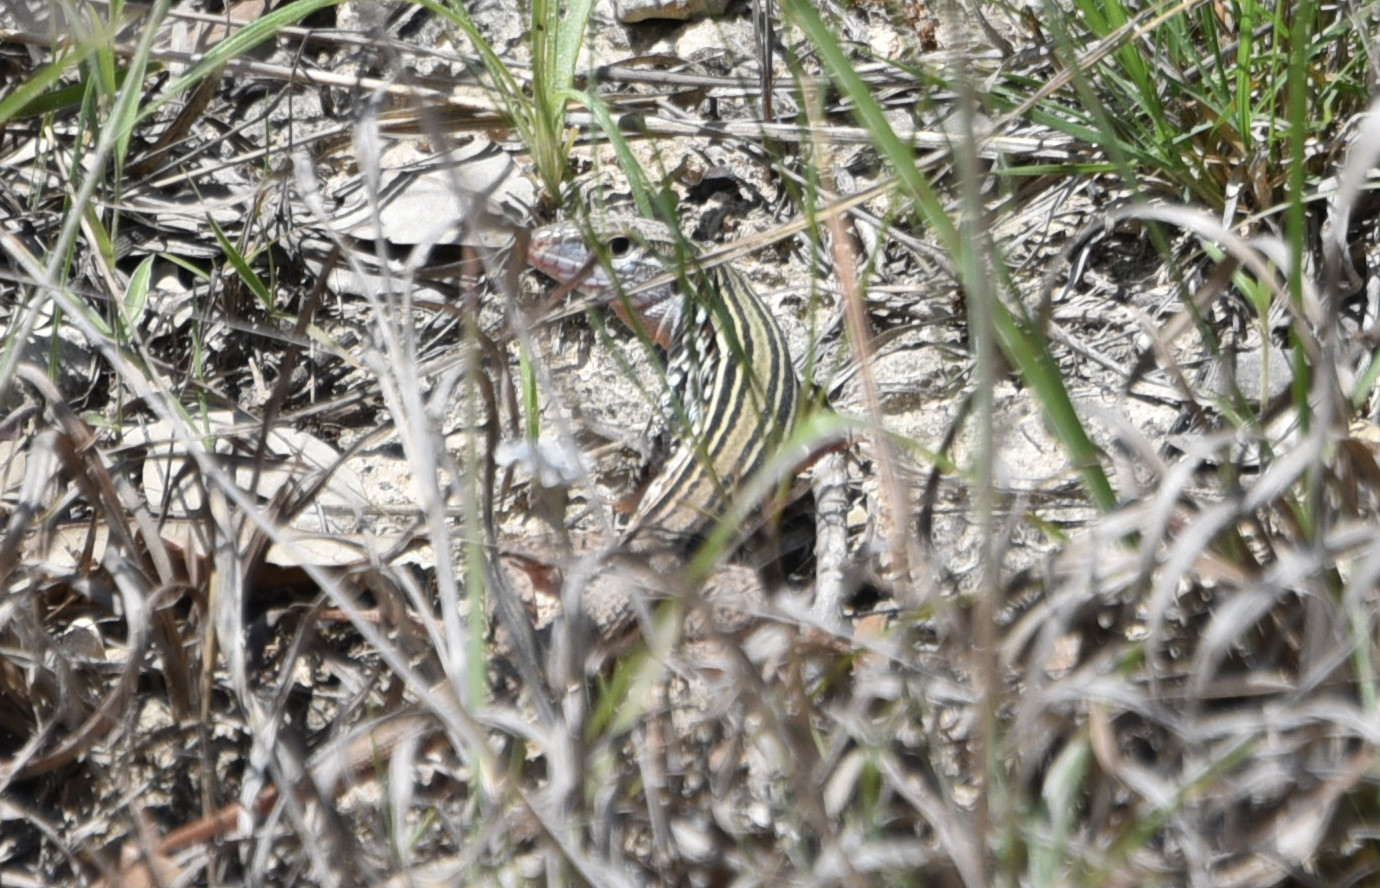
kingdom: Animalia
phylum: Chordata
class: Squamata
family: Teiidae
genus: Aspidoscelis
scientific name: Aspidoscelis gularis
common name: Eastern spotted whiptail
